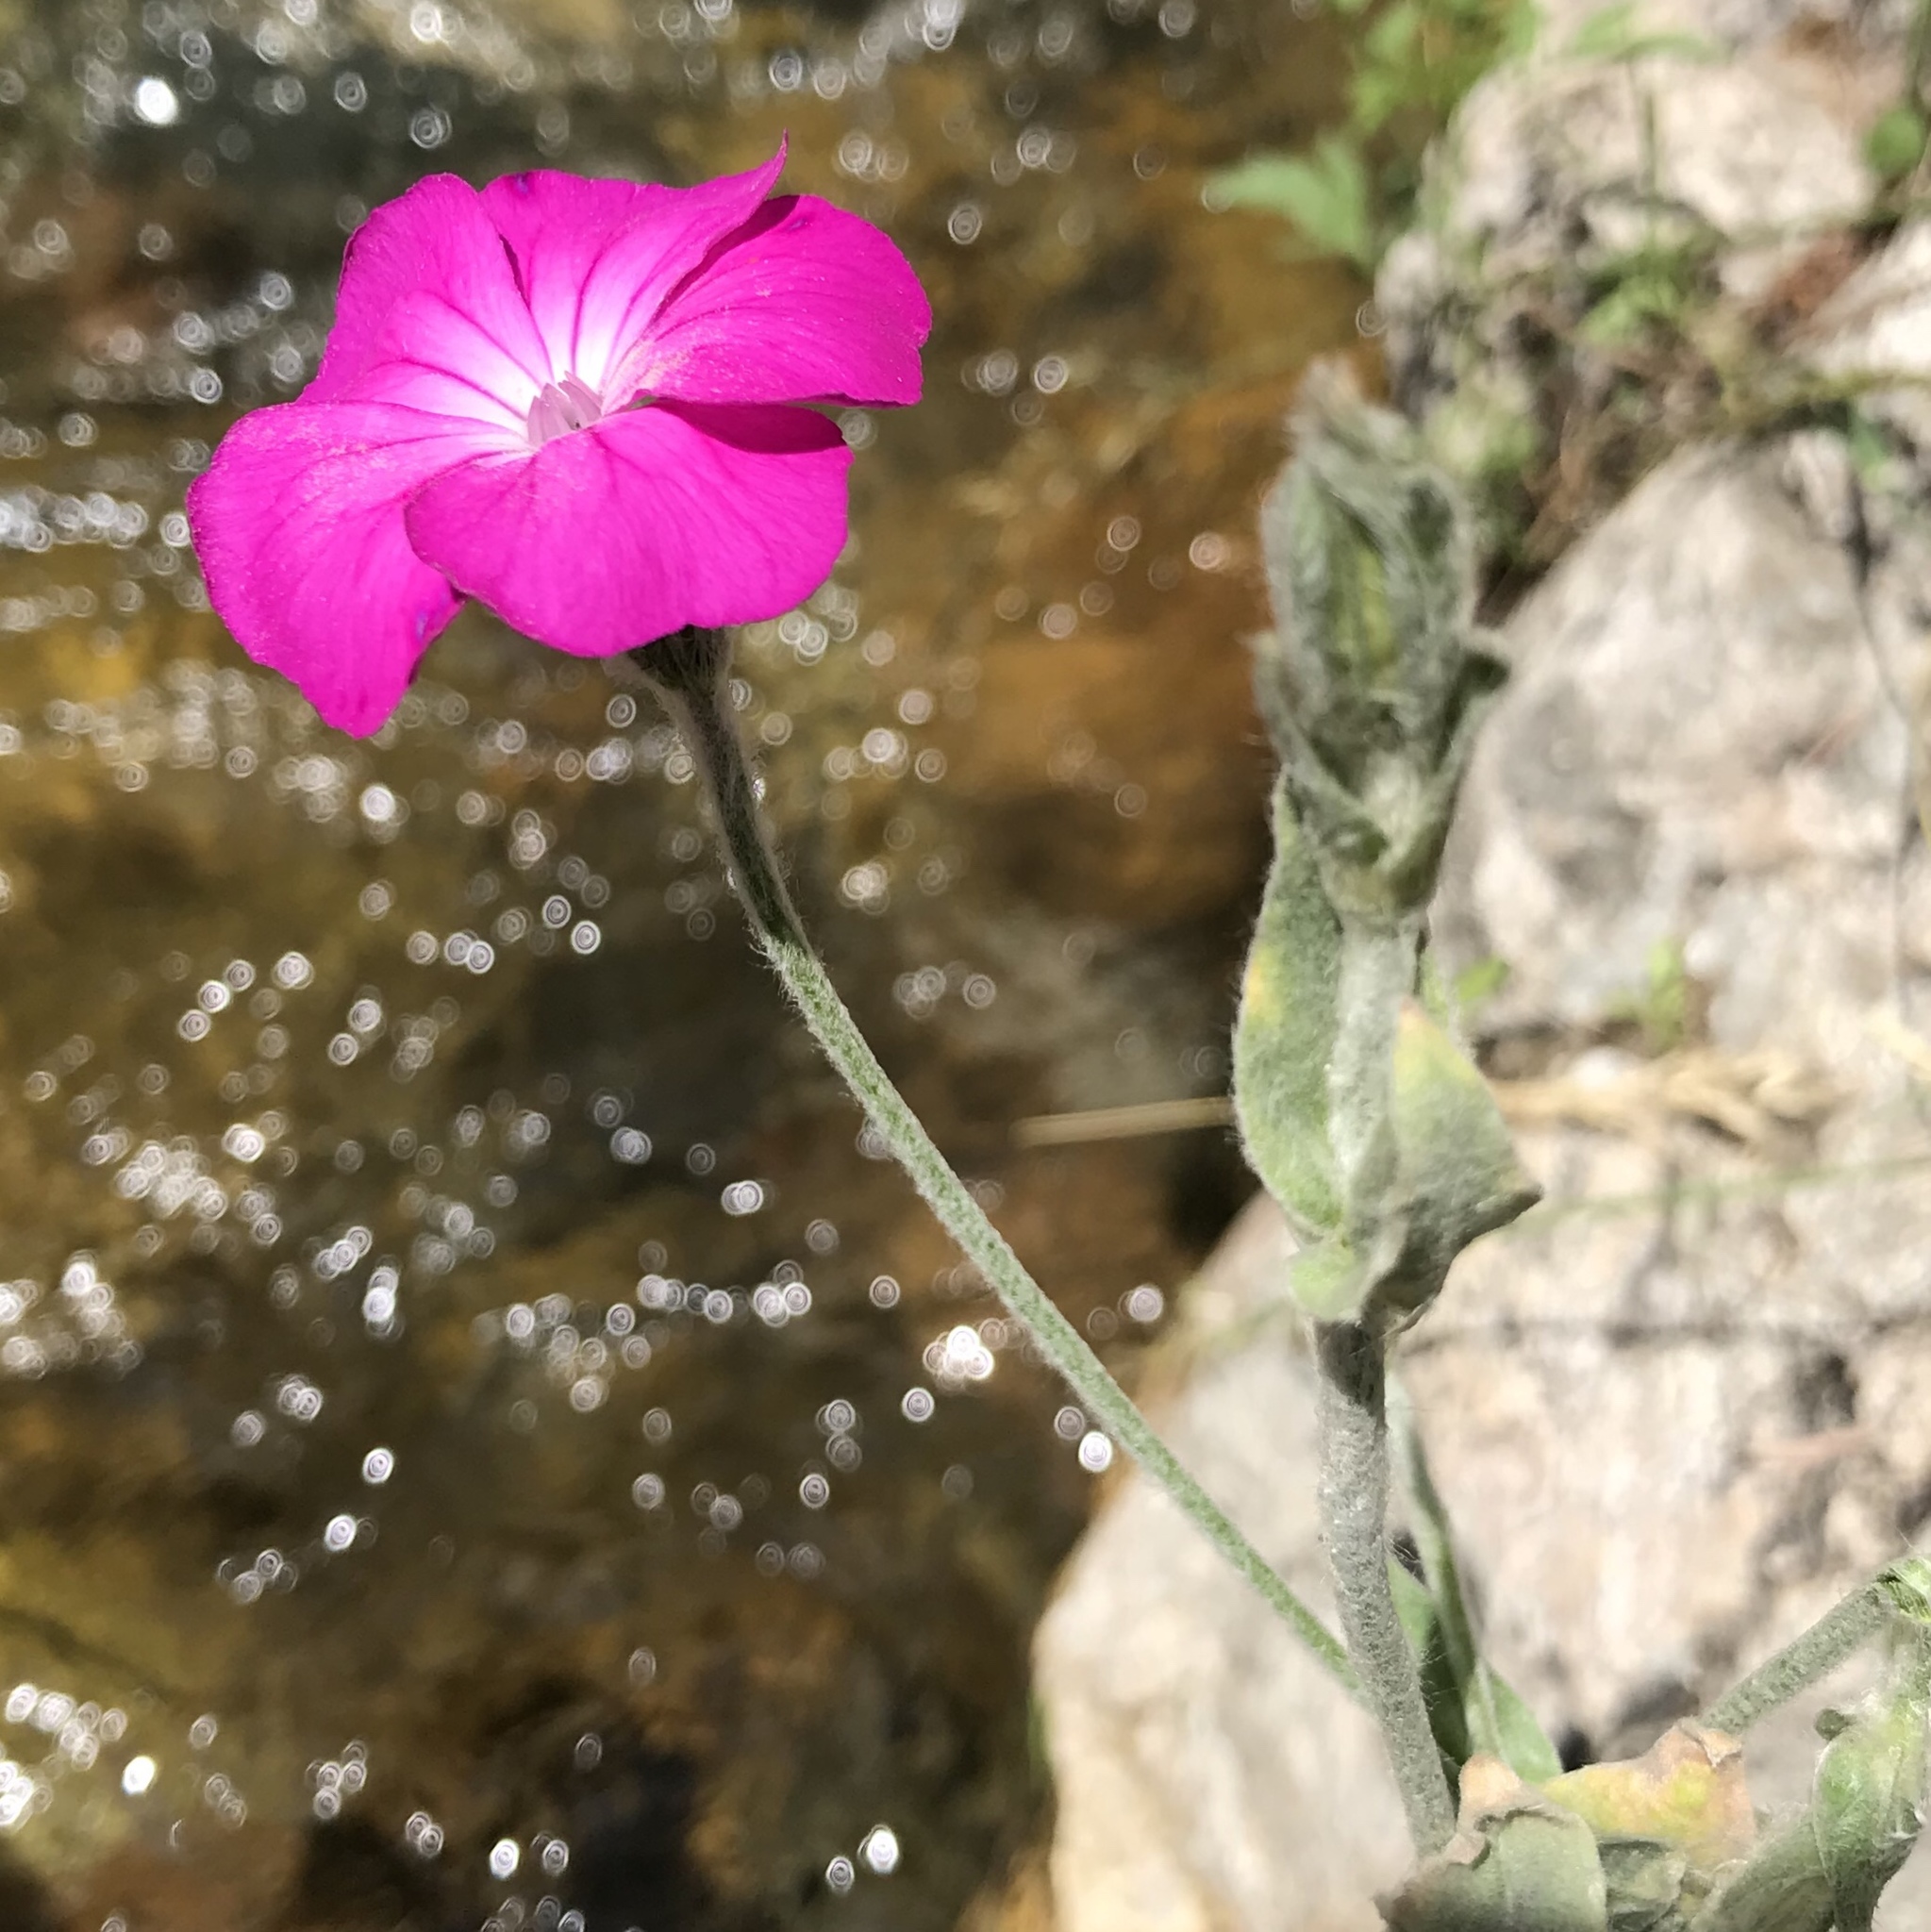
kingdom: Plantae
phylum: Tracheophyta
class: Magnoliopsida
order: Caryophyllales
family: Caryophyllaceae
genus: Silene
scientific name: Silene coronaria
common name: Rose campion
